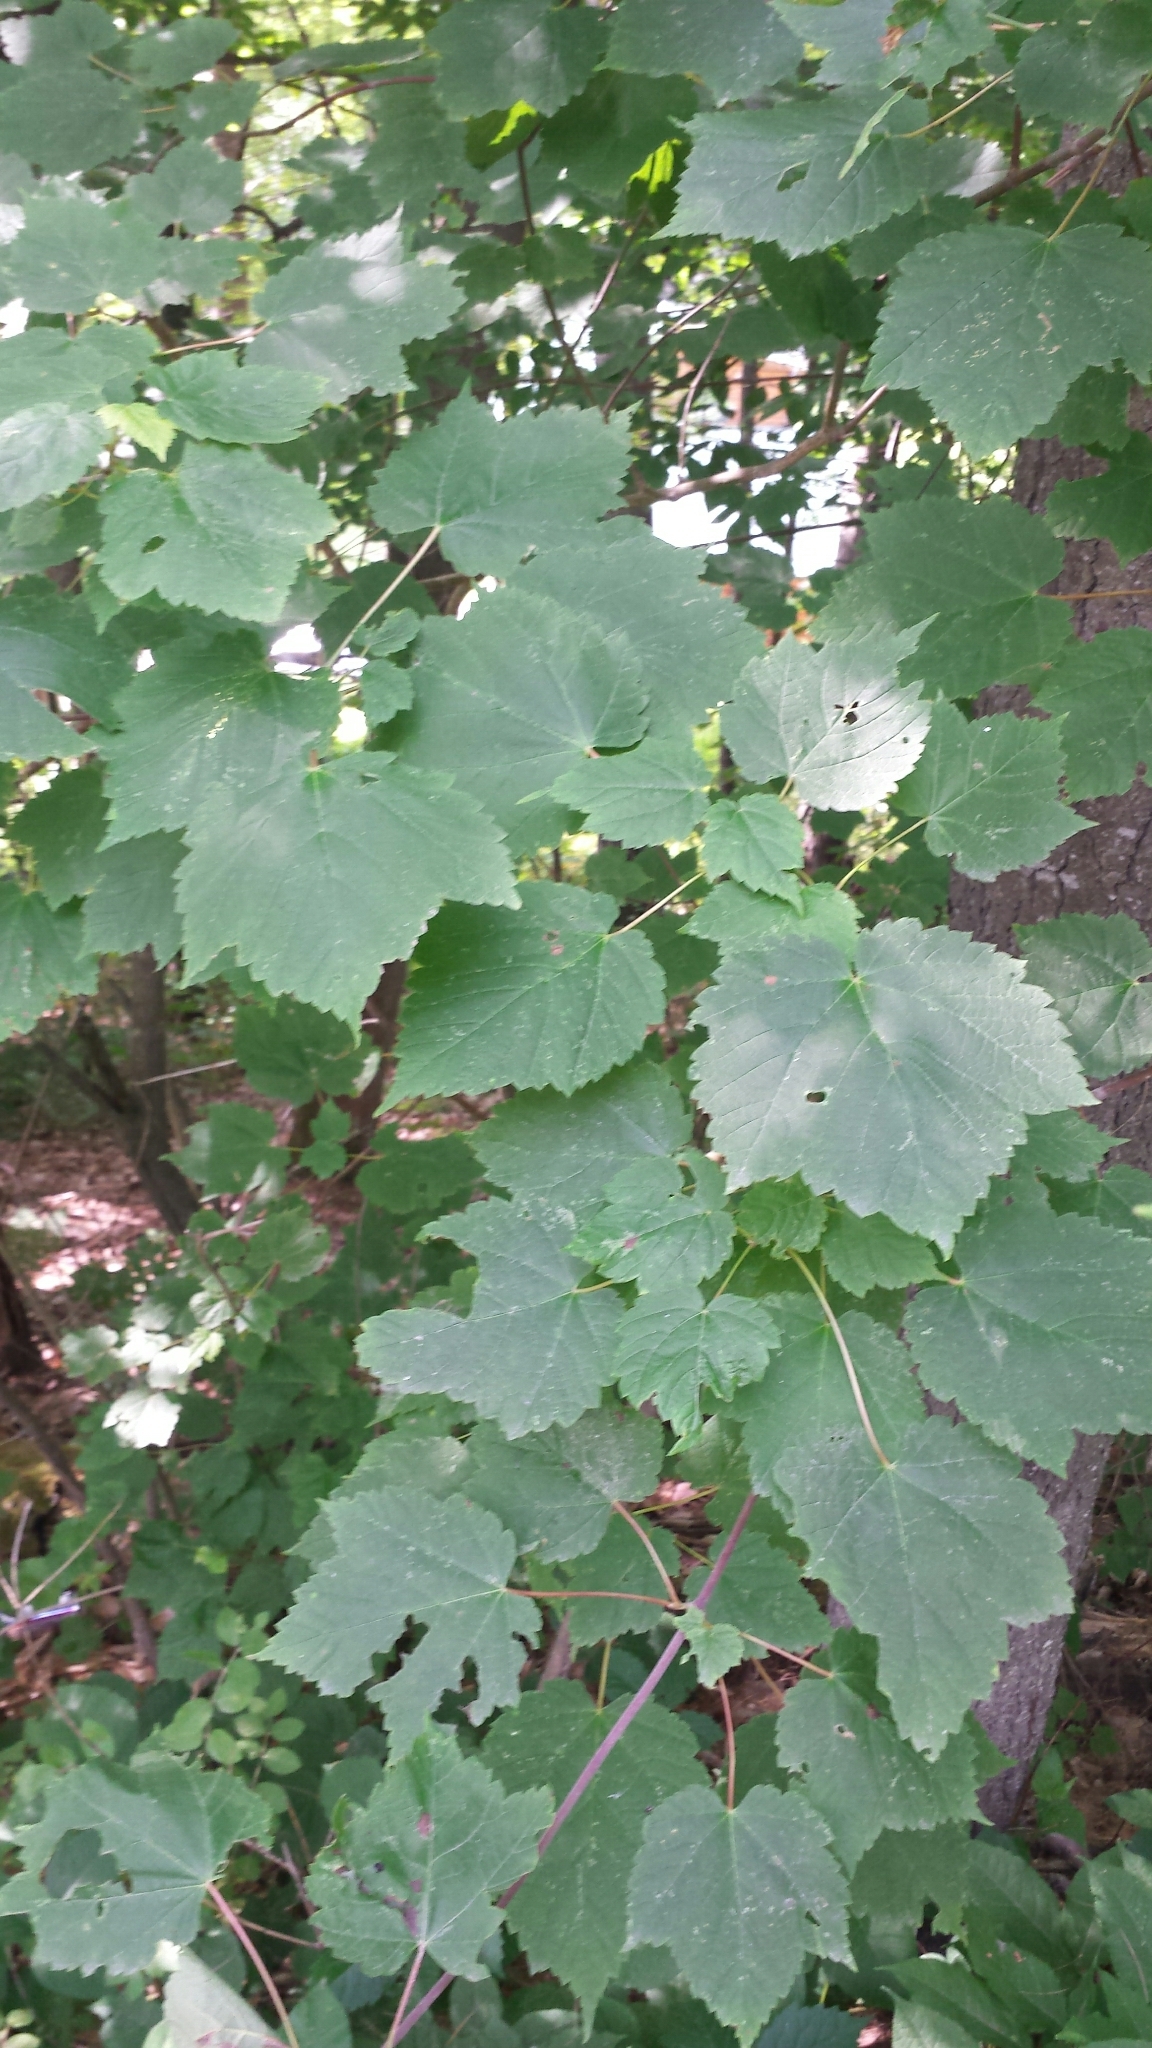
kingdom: Plantae
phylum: Tracheophyta
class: Magnoliopsida
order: Sapindales
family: Sapindaceae
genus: Acer
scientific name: Acer spicatum
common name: Mountain maple
